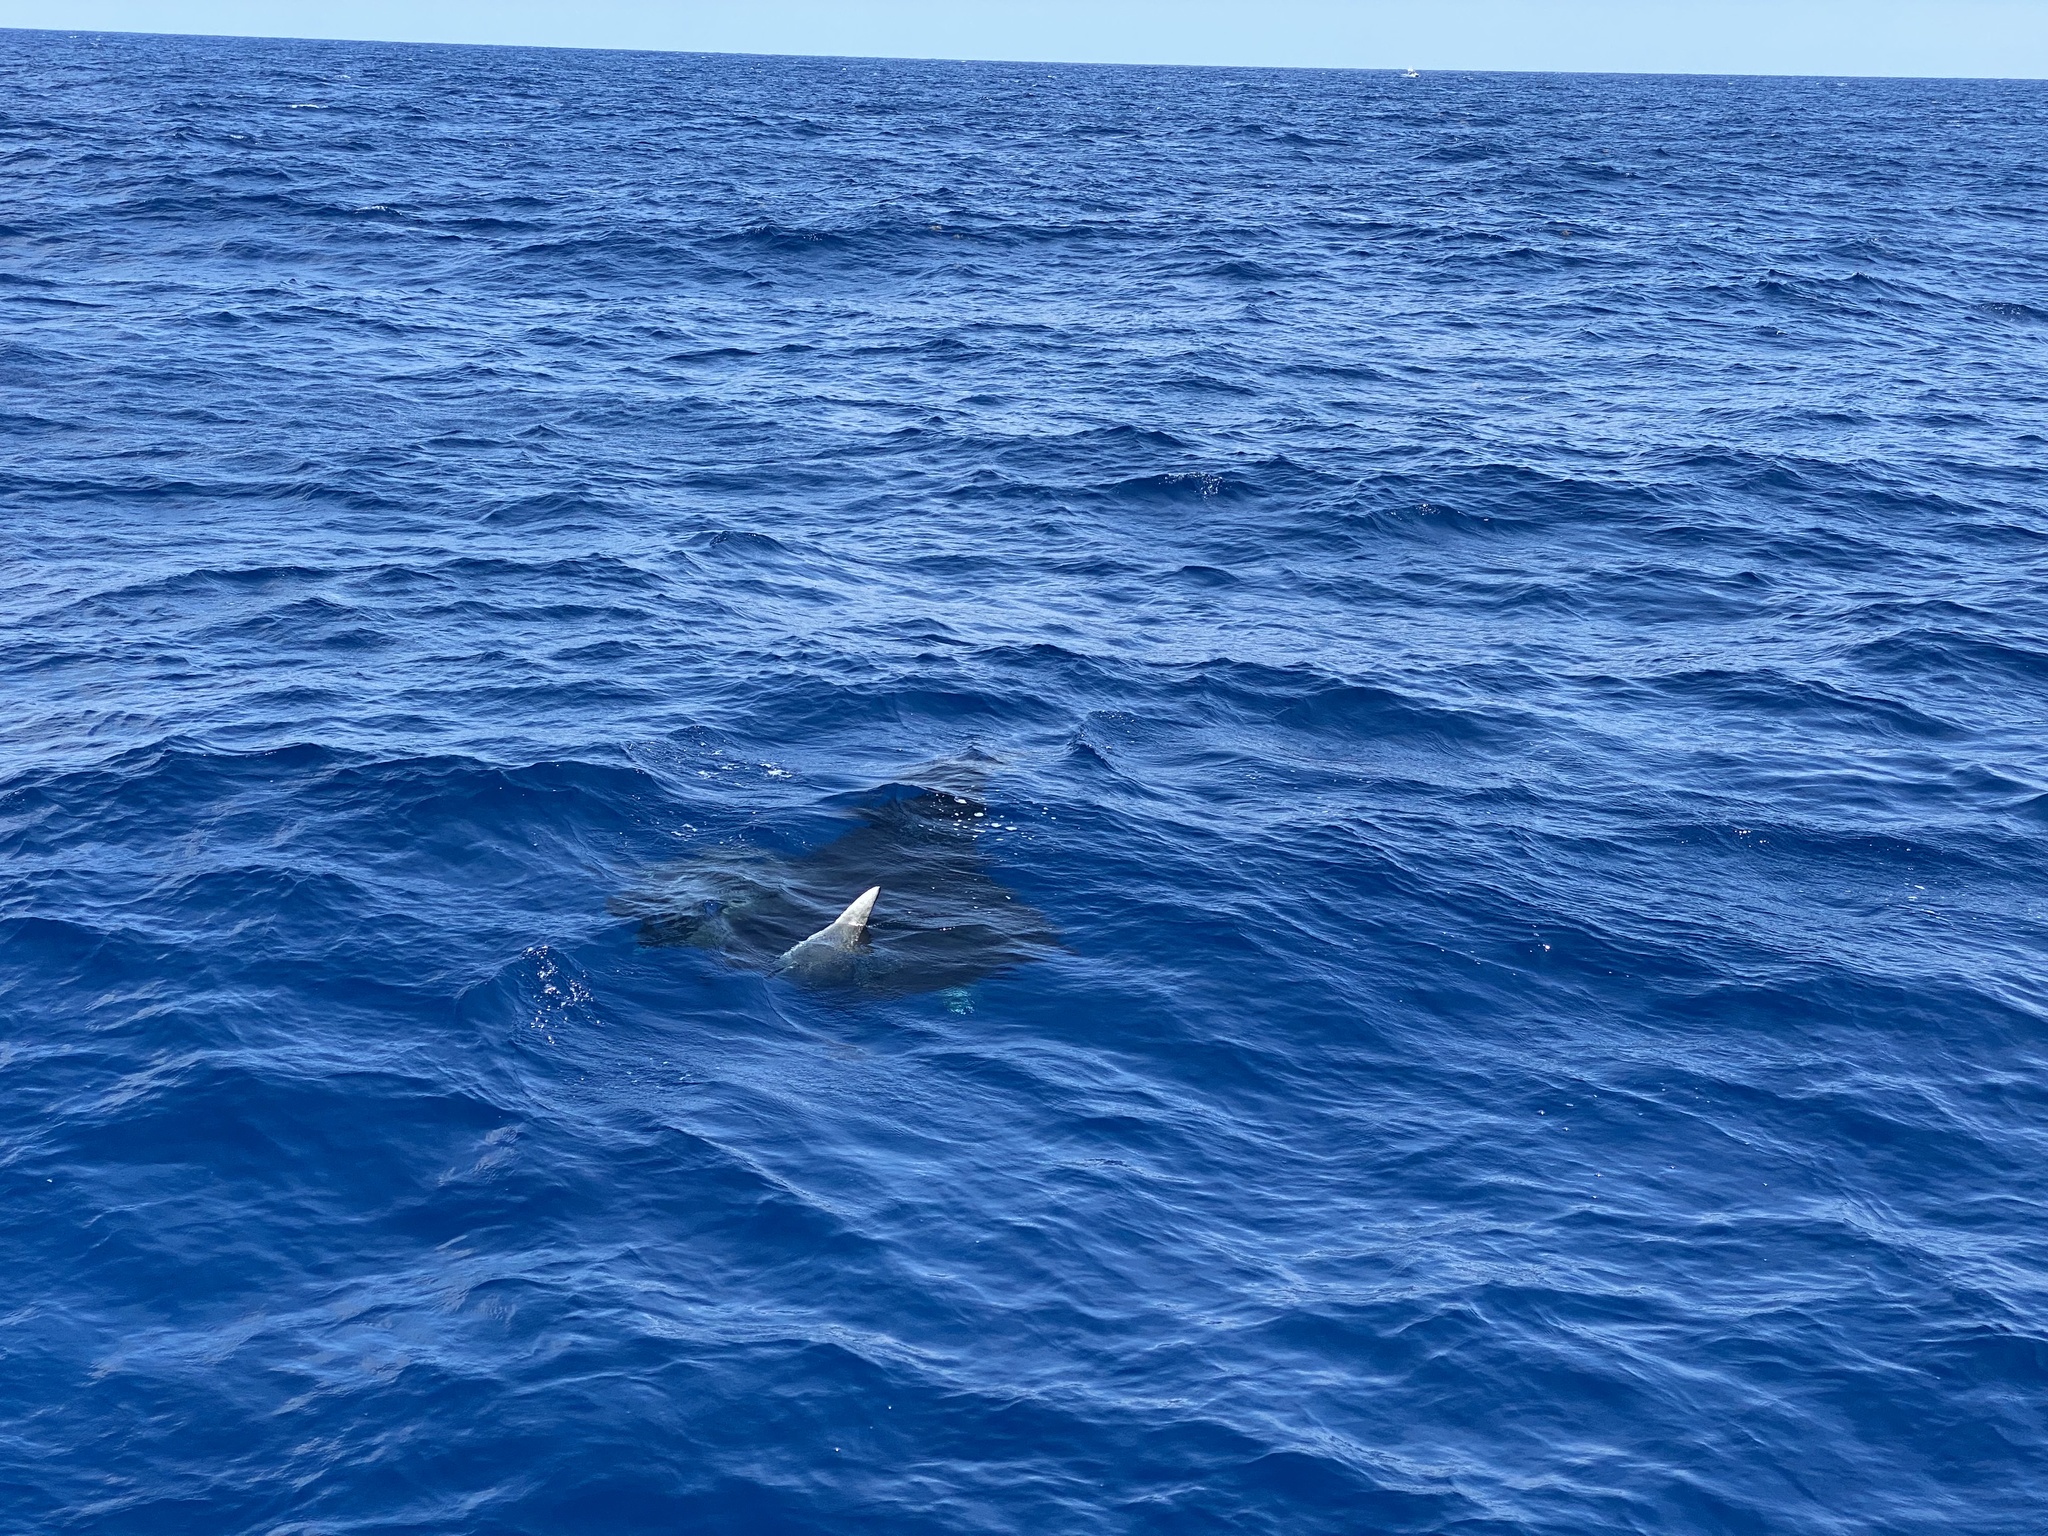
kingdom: Animalia
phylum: Chordata
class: Elasmobranchii
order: Myliobatiformes
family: Myliobatidae
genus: Mobula
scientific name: Mobula birostris
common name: Manta ray
